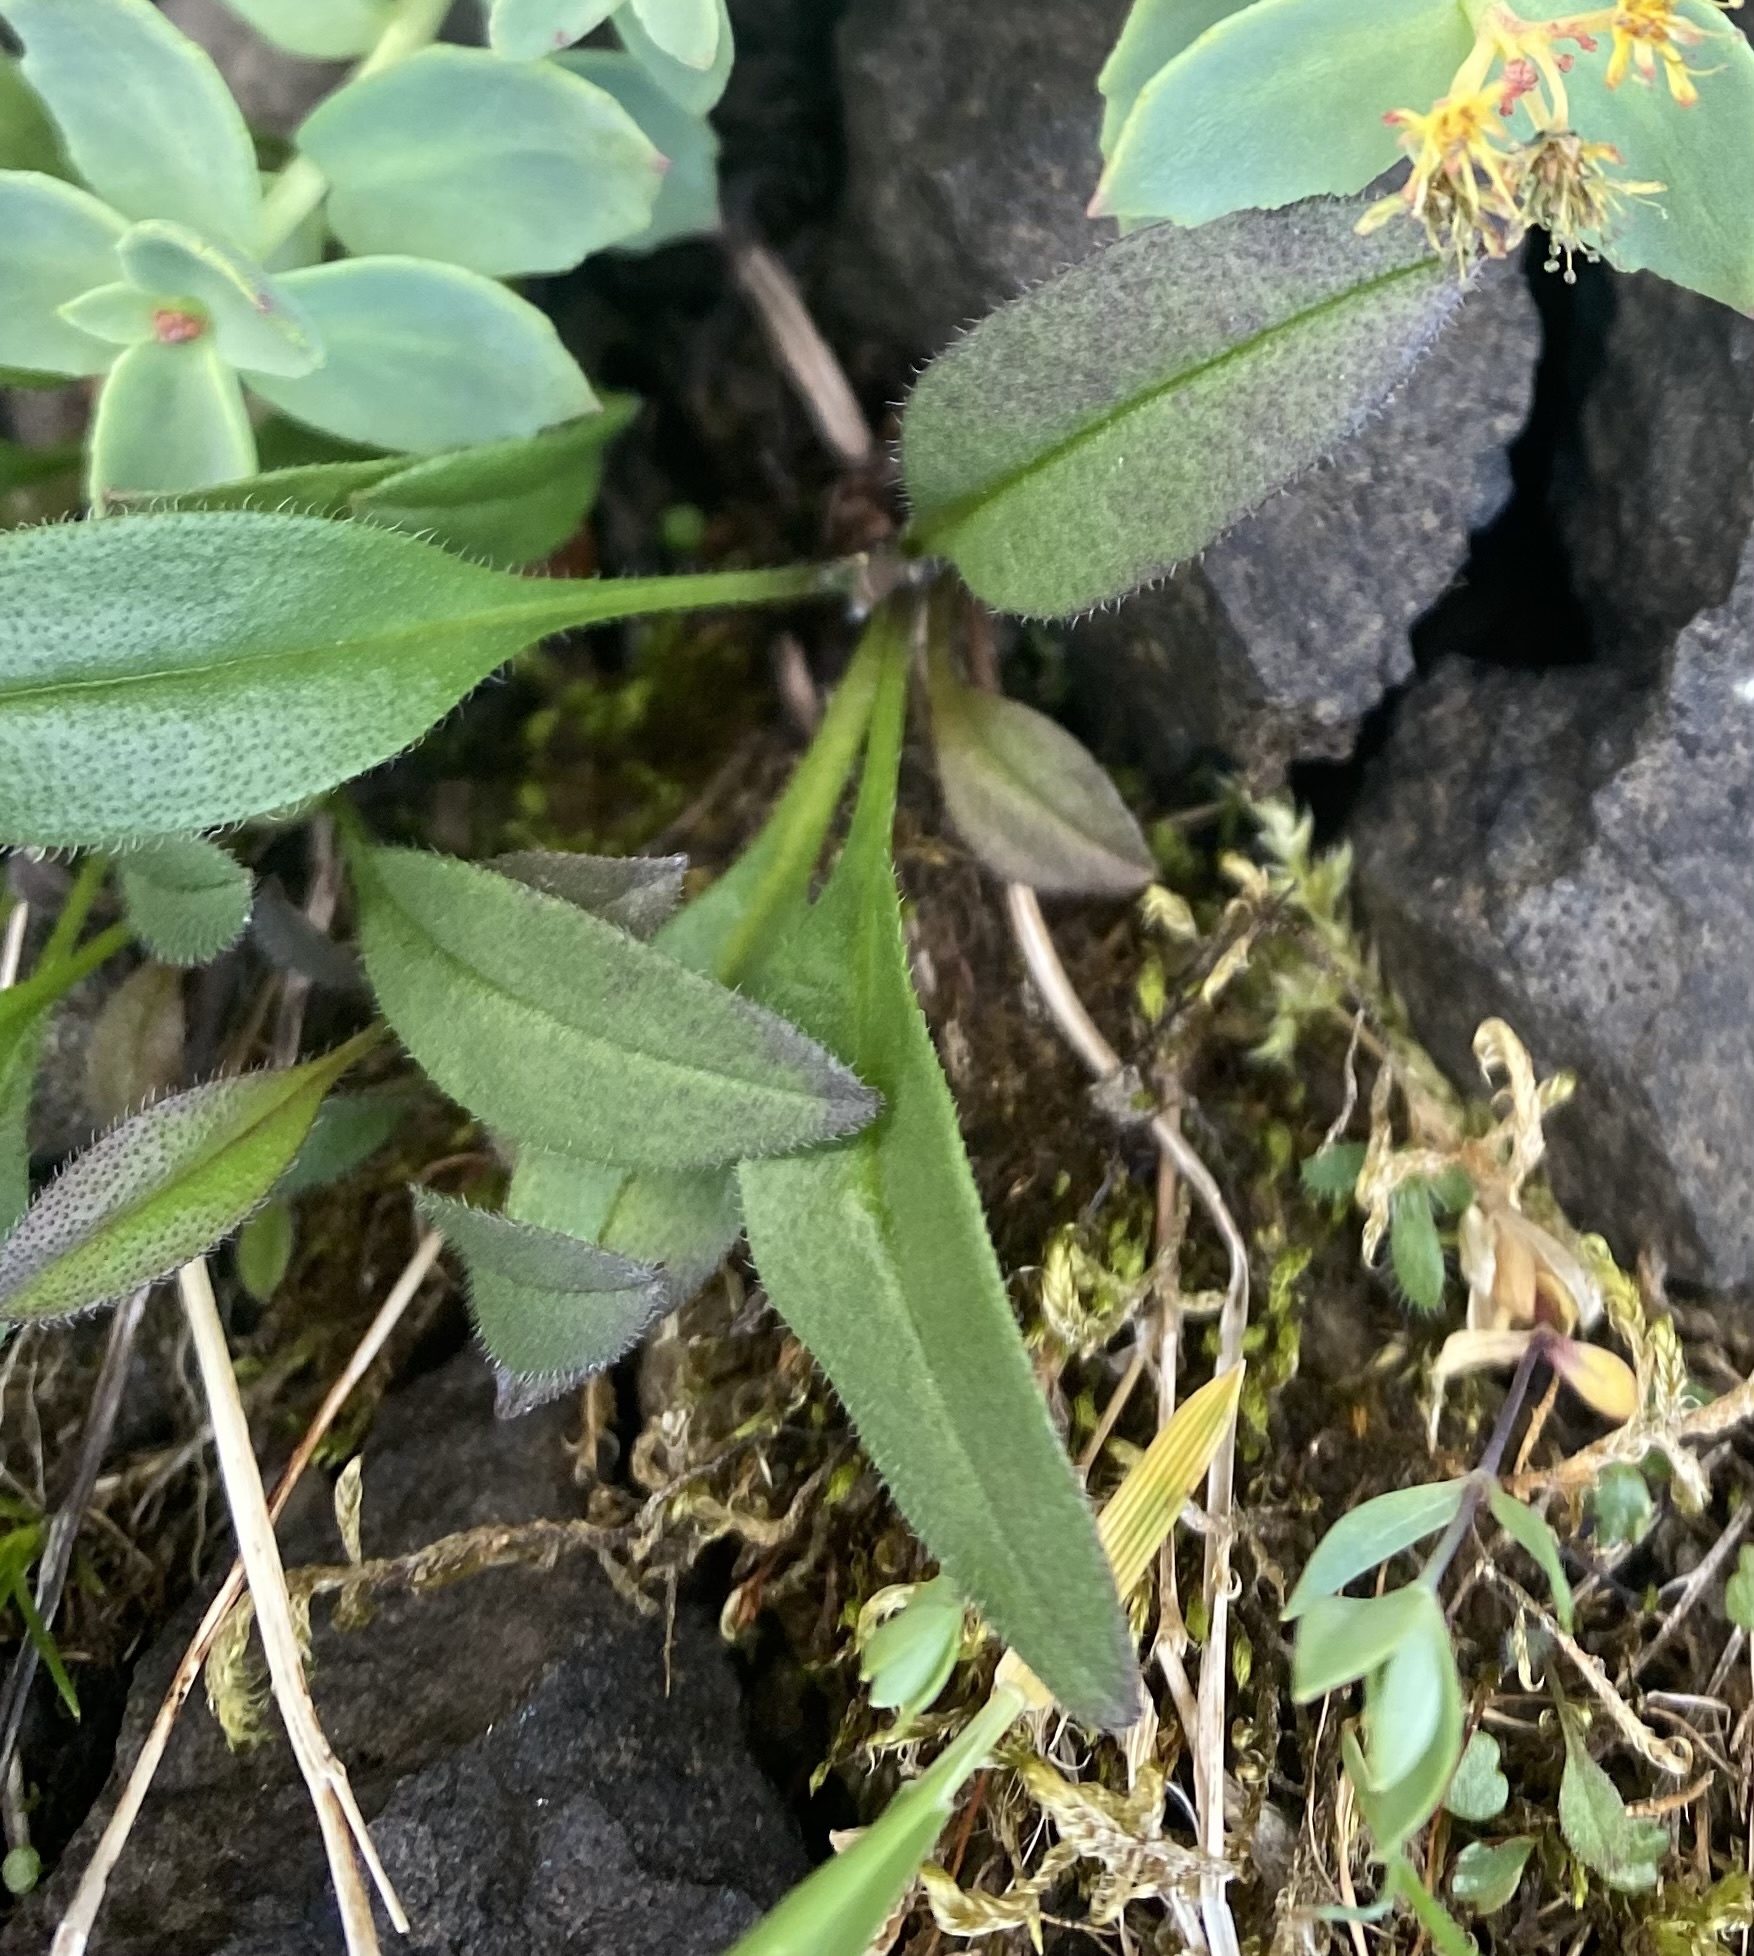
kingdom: Plantae
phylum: Tracheophyta
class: Magnoliopsida
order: Boraginales
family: Boraginaceae
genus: Myosotis
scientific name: Myosotis asiatica
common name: Asian forget-me-not
